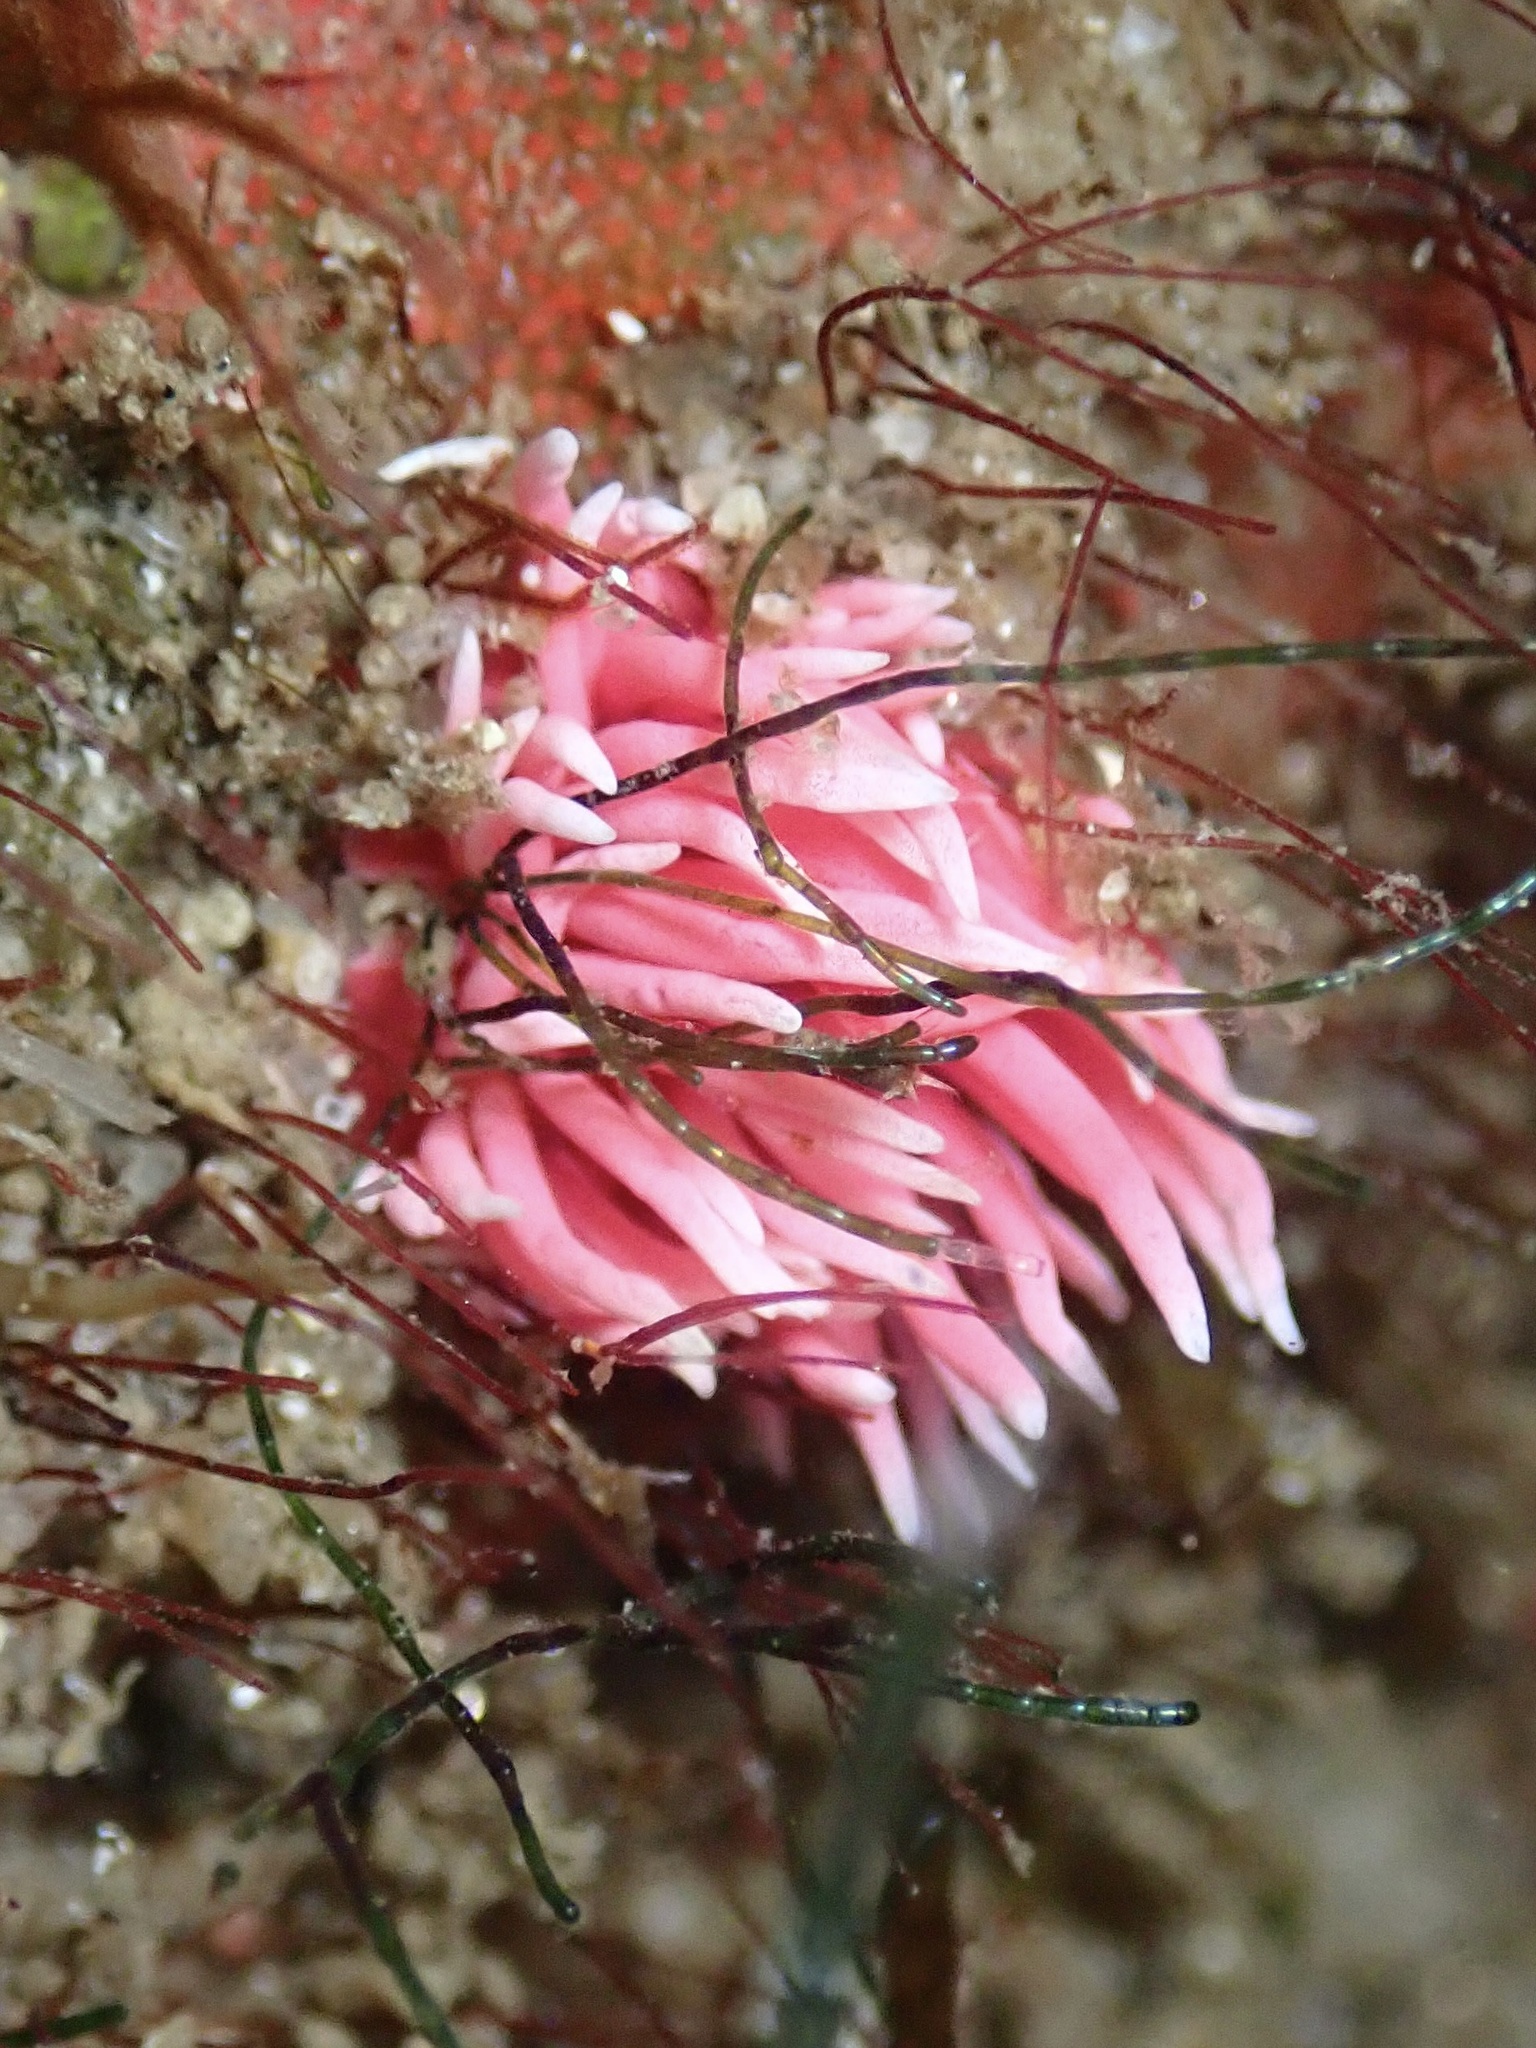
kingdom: Animalia
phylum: Mollusca
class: Gastropoda
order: Nudibranchia
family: Goniodorididae
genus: Okenia
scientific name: Okenia
